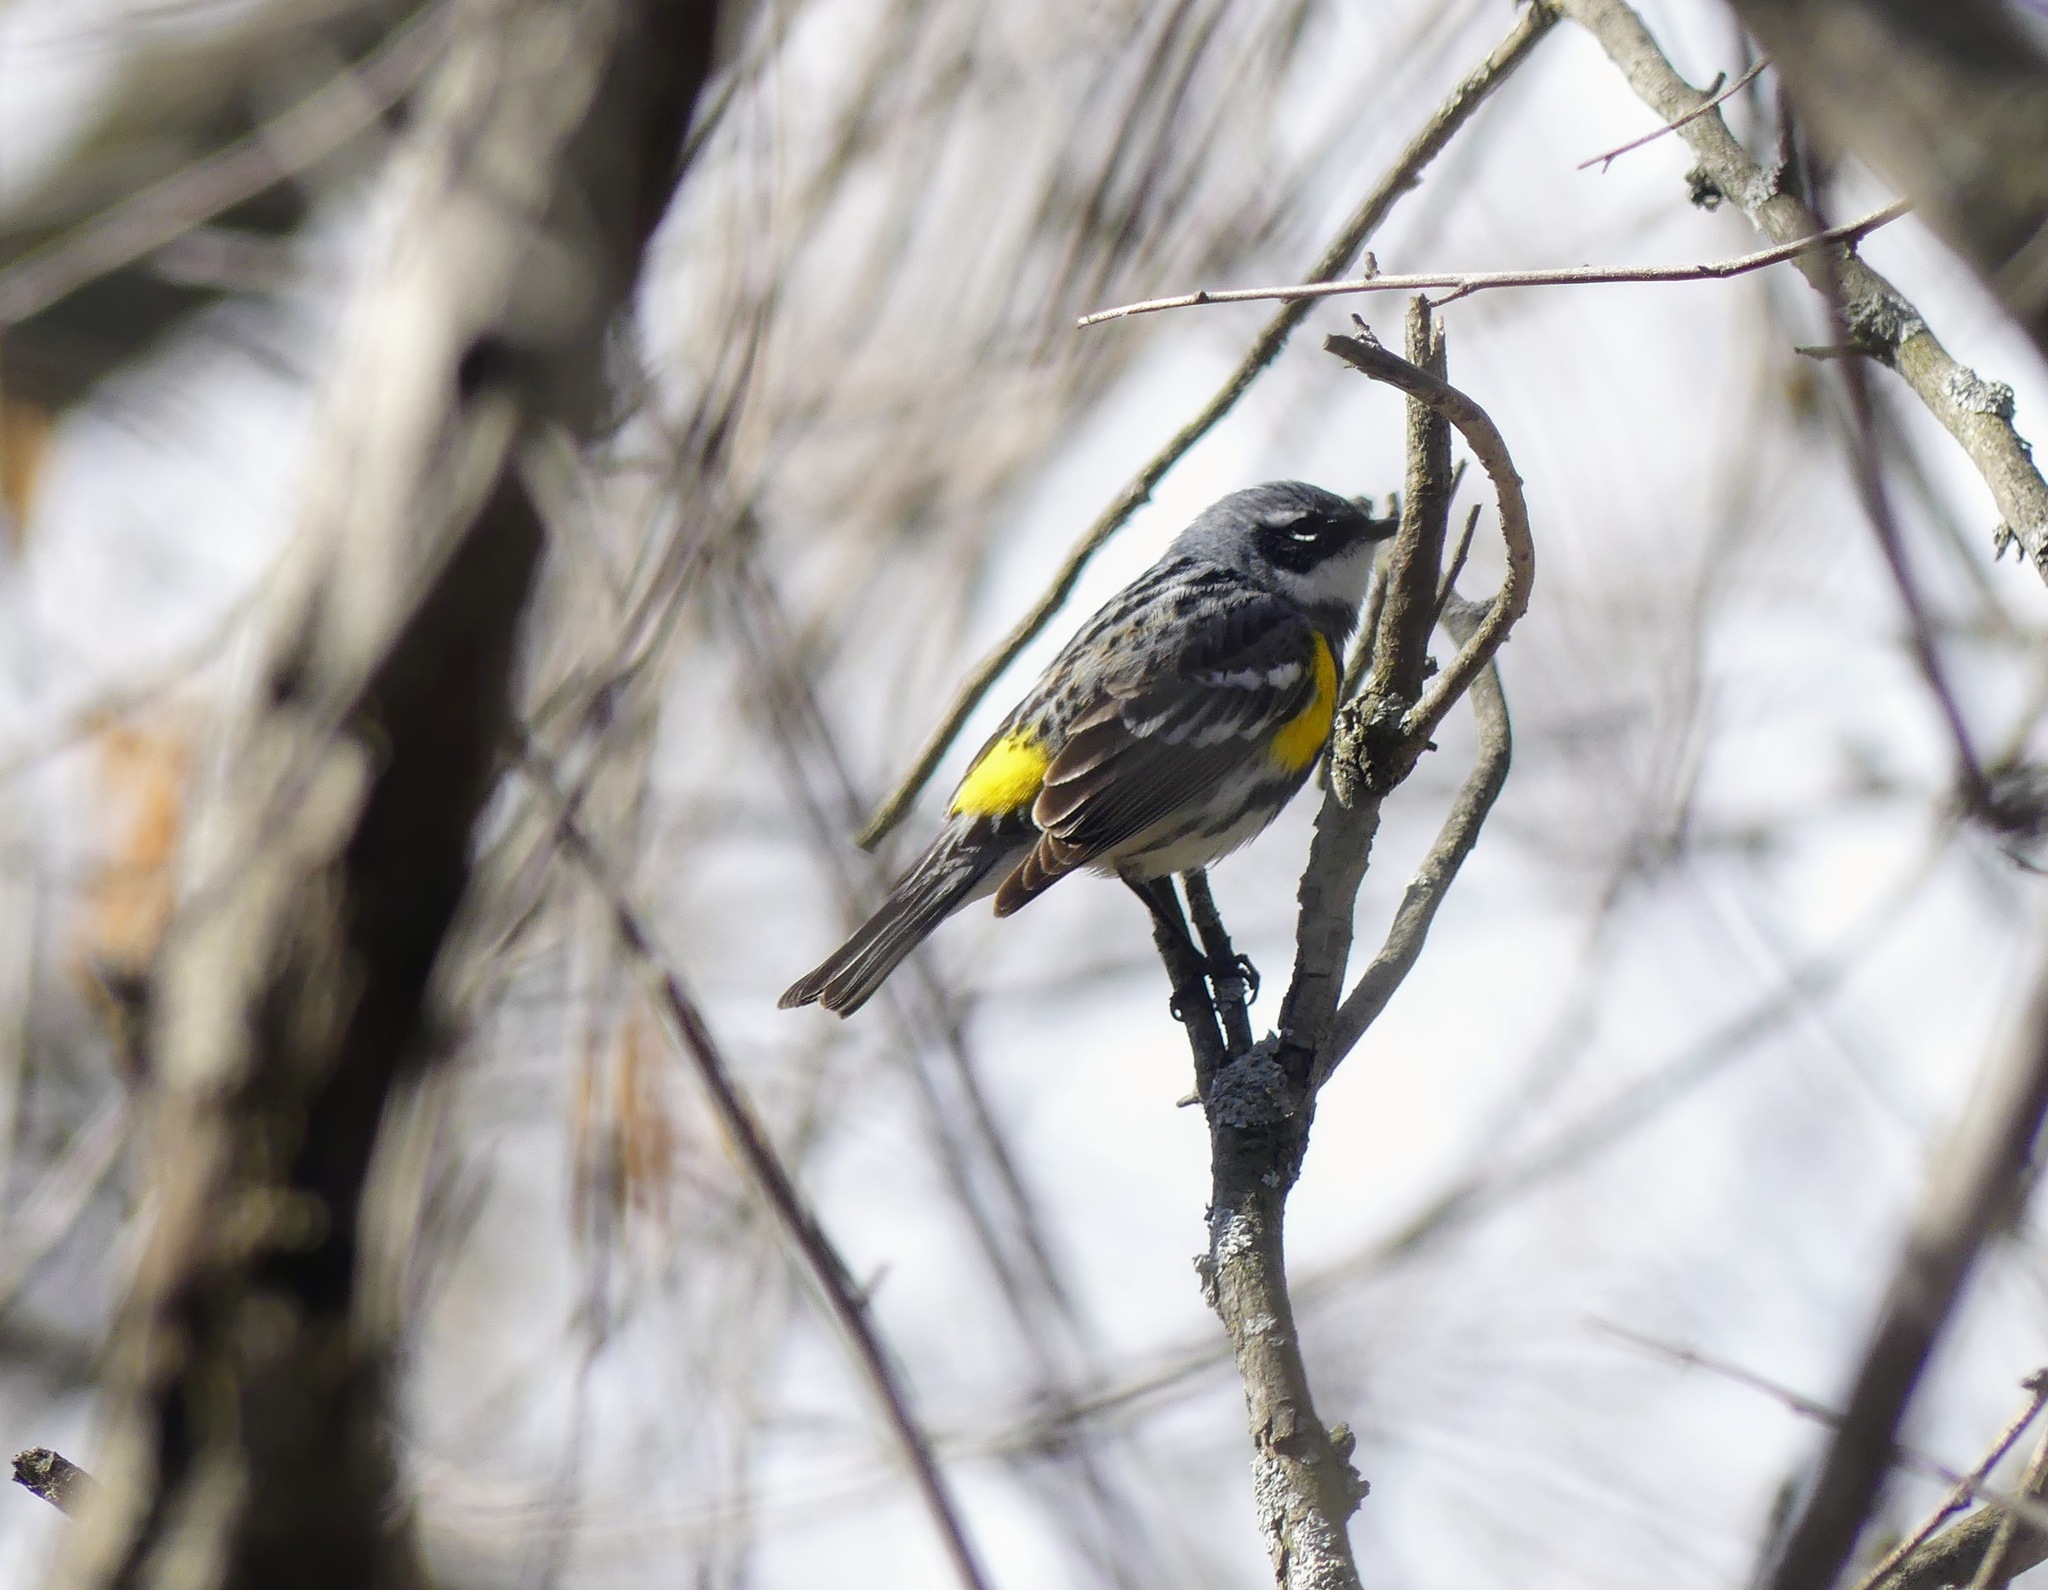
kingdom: Animalia
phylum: Chordata
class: Aves
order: Passeriformes
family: Parulidae
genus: Setophaga
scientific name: Setophaga coronata
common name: Myrtle warbler
